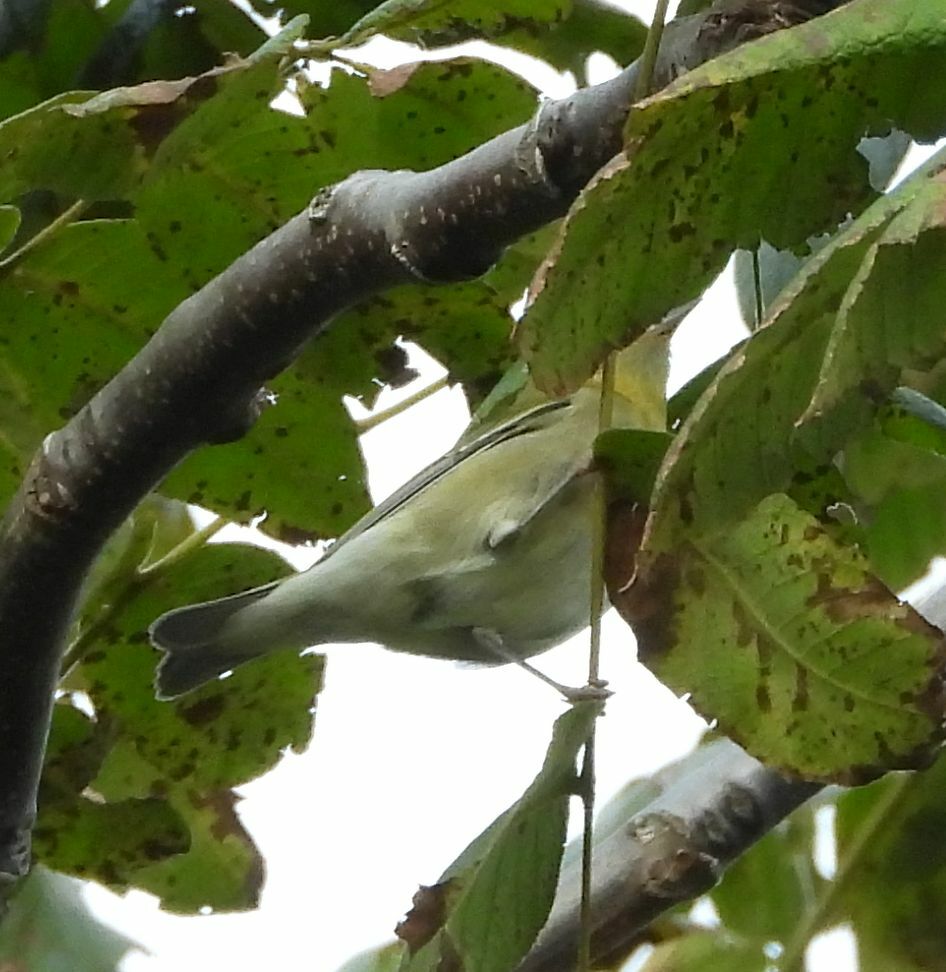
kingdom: Animalia
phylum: Chordata
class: Aves
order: Passeriformes
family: Parulidae
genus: Leiothlypis
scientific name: Leiothlypis peregrina
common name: Tennessee warbler
